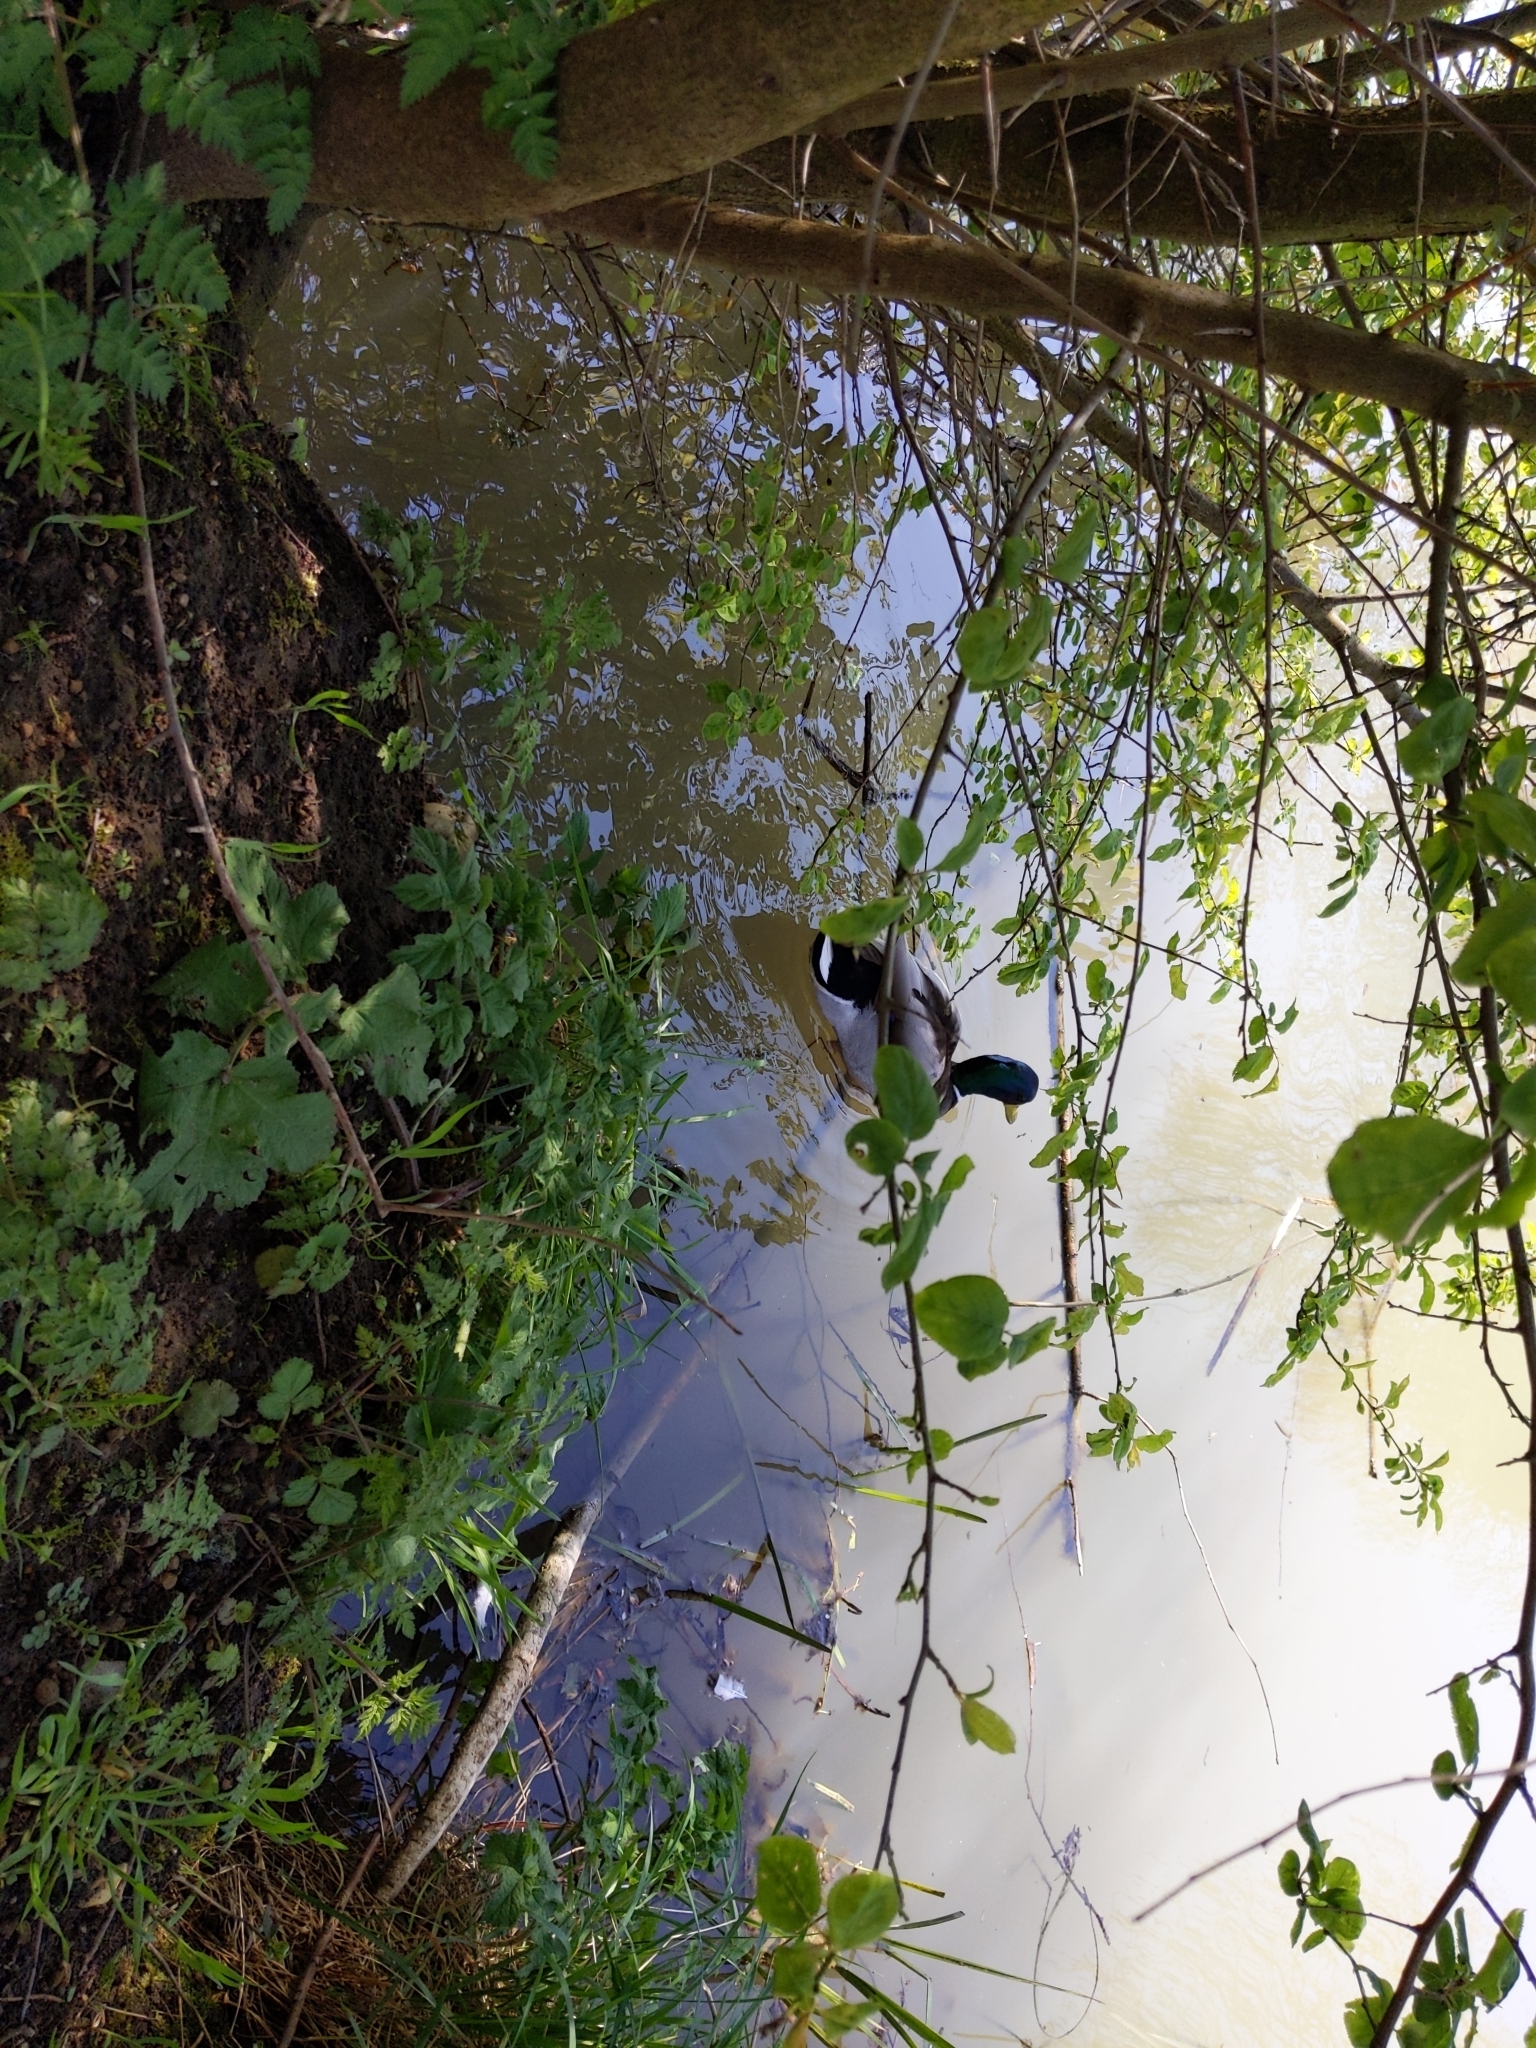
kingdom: Animalia
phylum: Chordata
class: Aves
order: Anseriformes
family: Anatidae
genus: Anas
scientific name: Anas platyrhynchos
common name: Mallard
